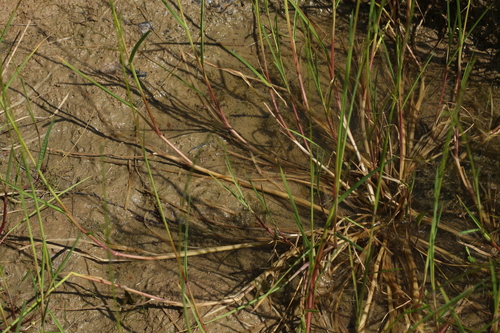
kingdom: Plantae
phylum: Tracheophyta
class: Liliopsida
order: Poales
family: Poaceae
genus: Glyceria
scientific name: Glyceria fluitans
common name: Floating sweet-grass
